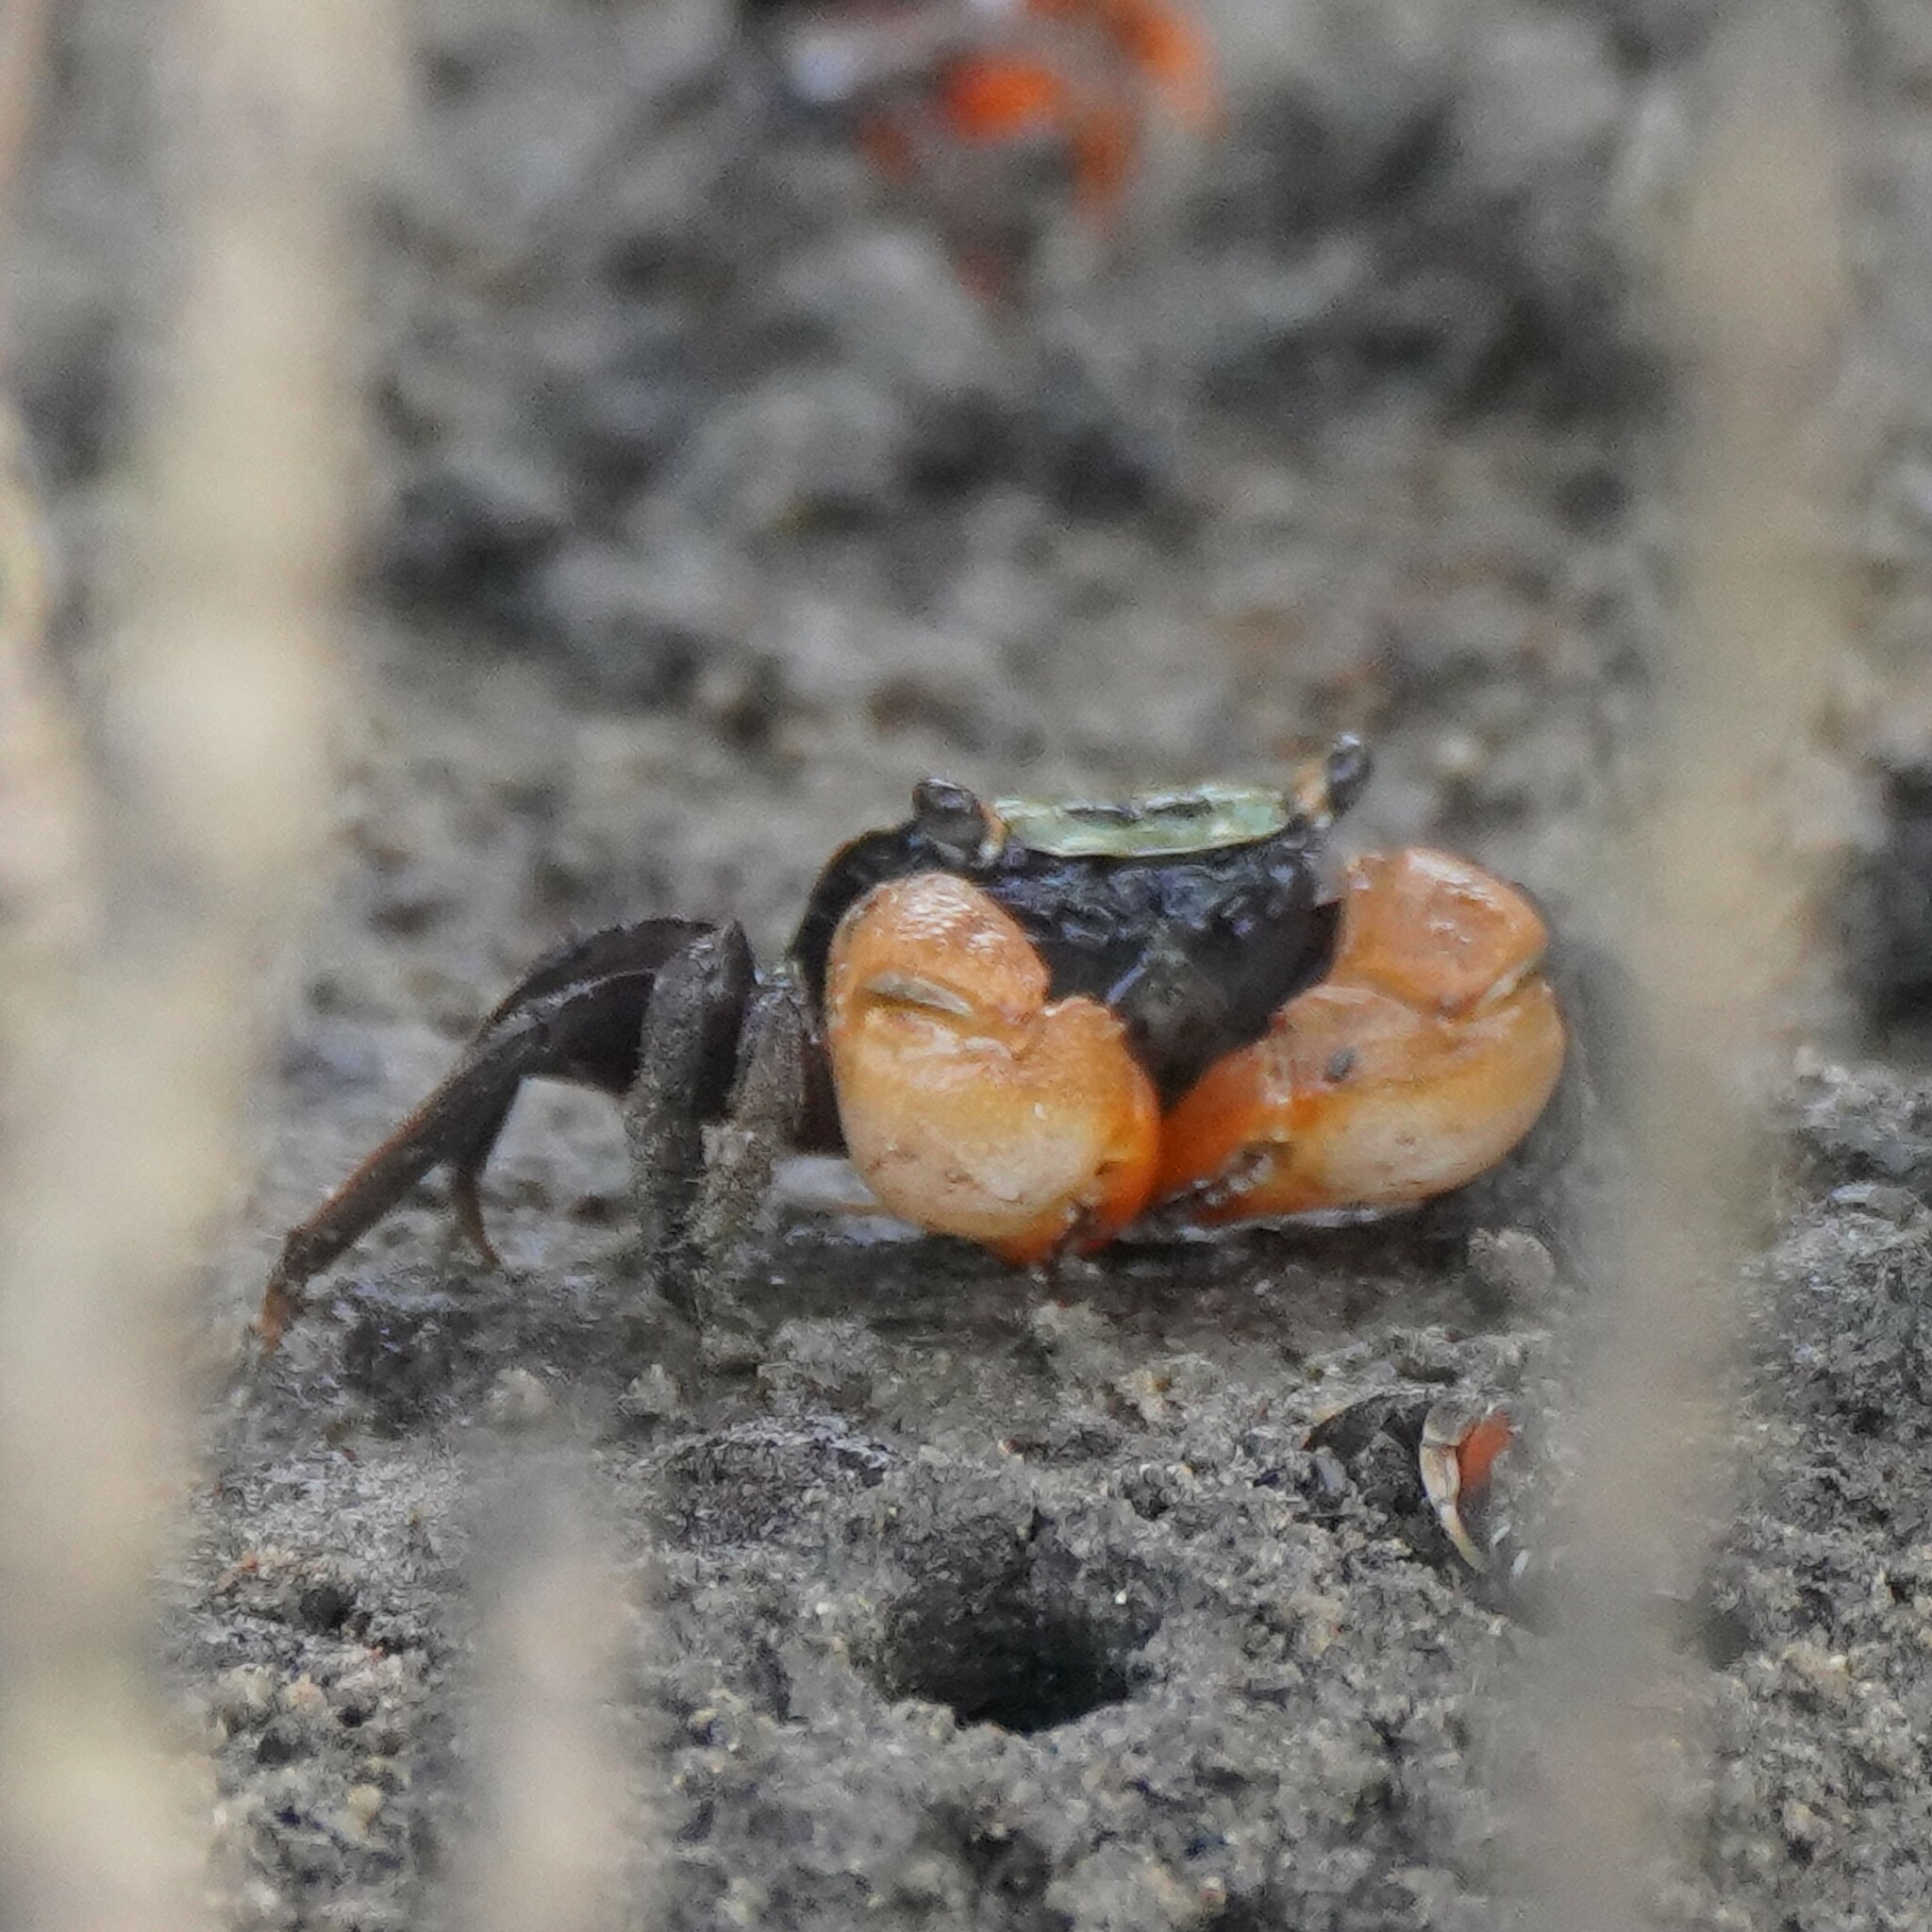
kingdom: Animalia
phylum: Arthropoda
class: Malacostraca
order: Decapoda
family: Sesarmidae
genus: Parasesarma
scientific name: Parasesarma erythodactylum
